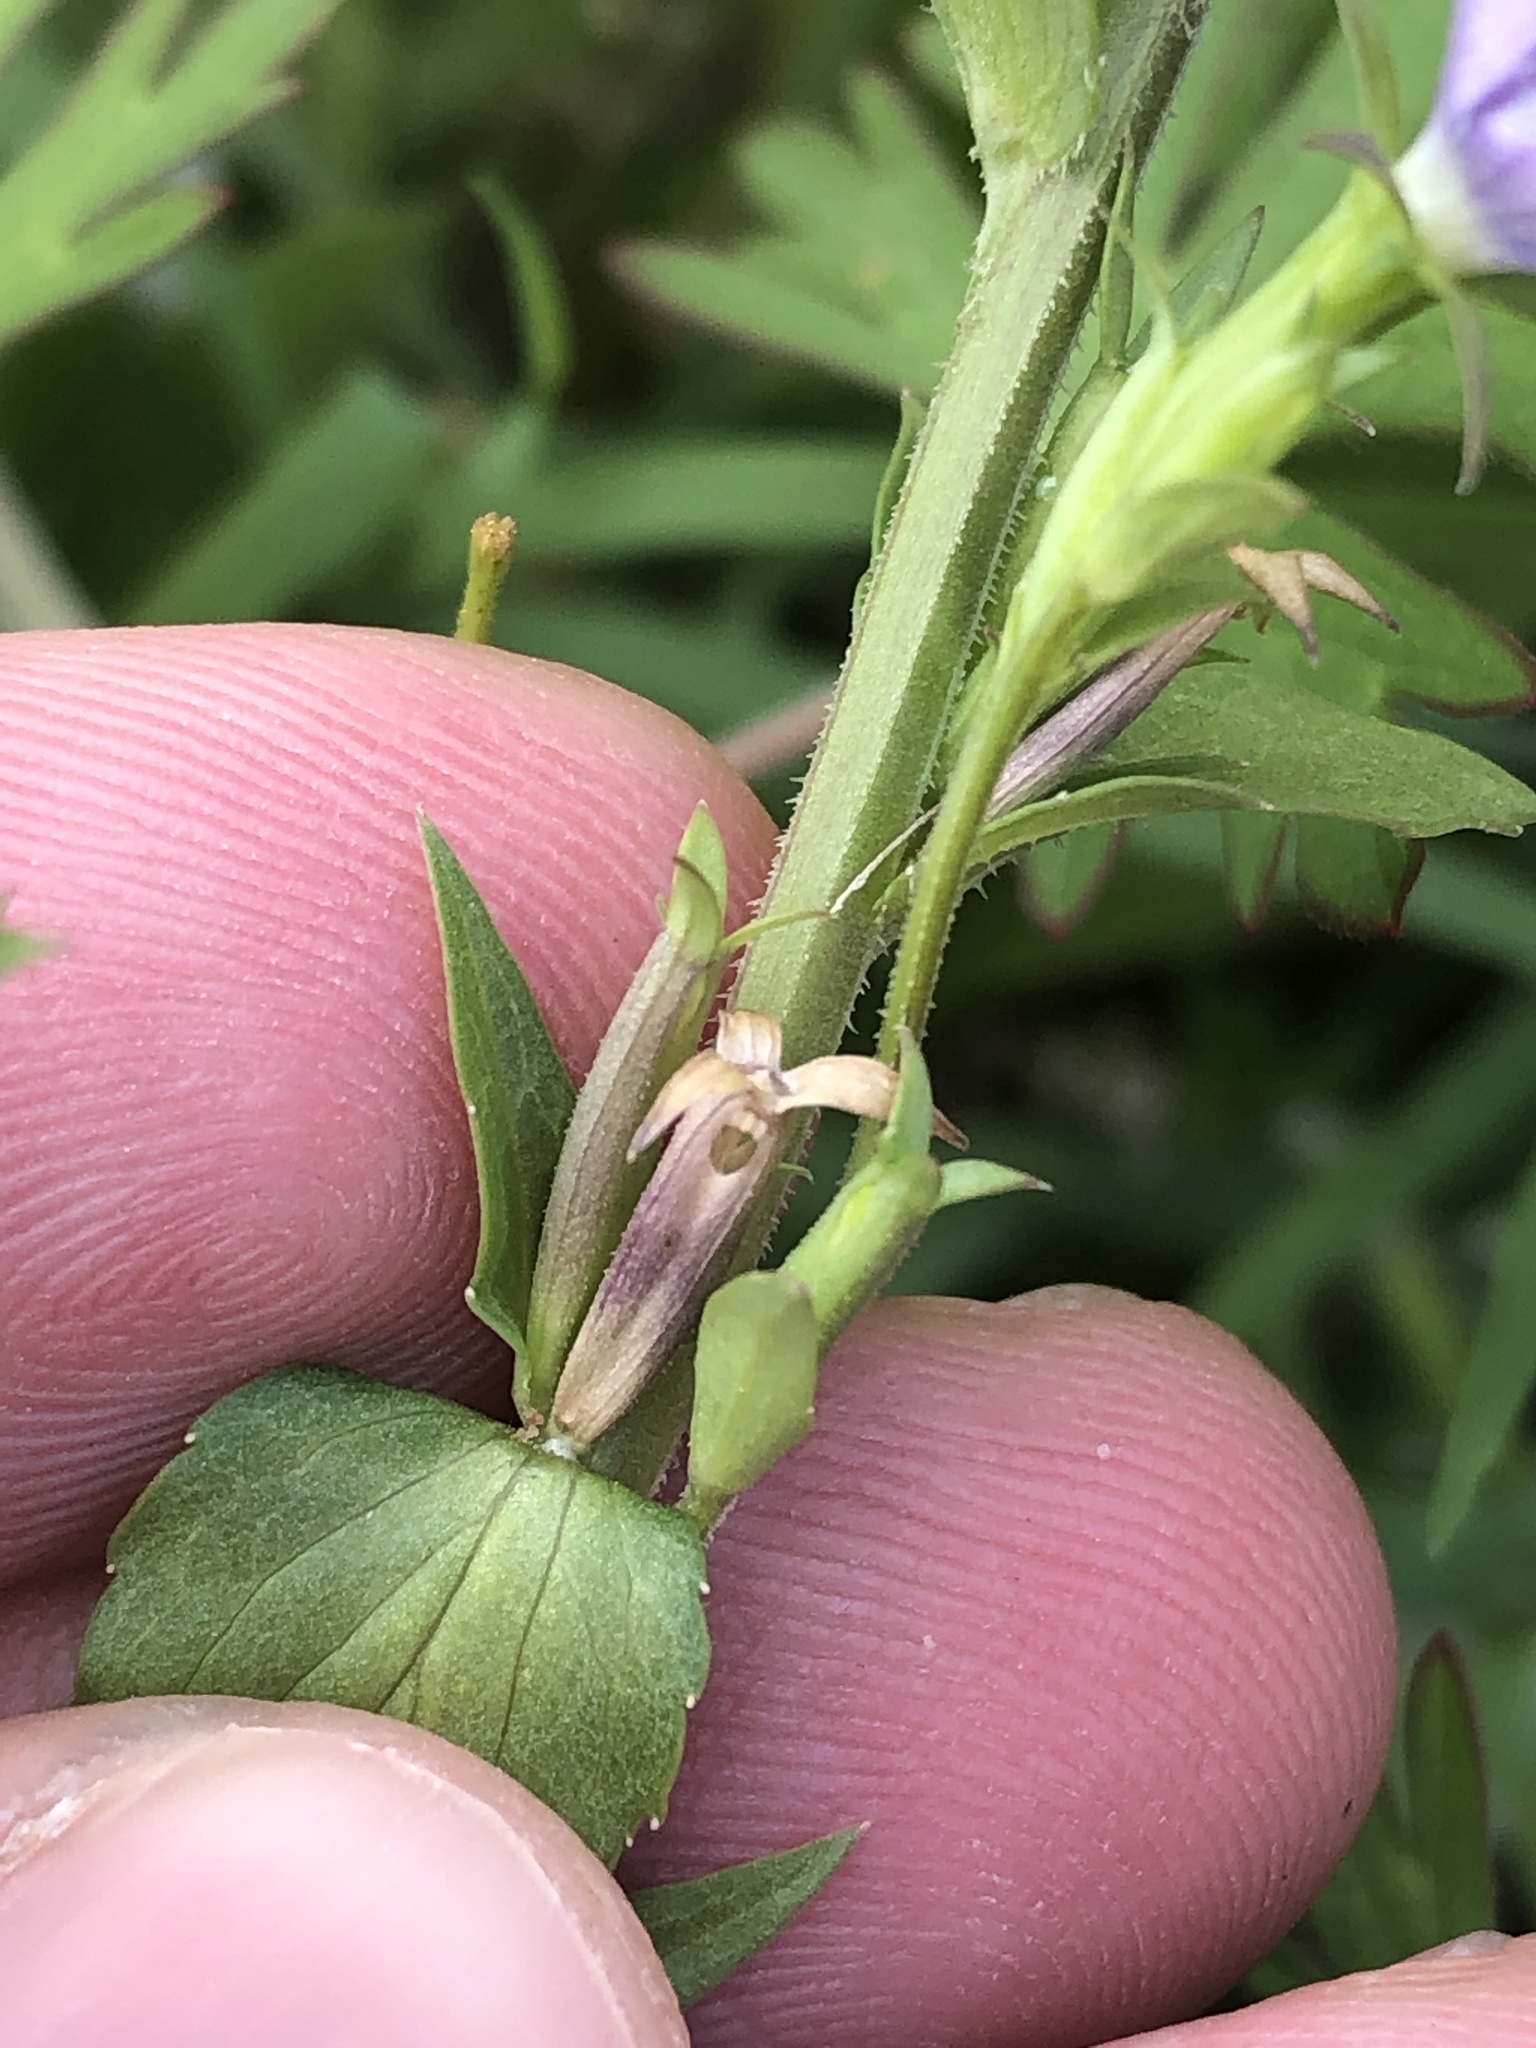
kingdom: Plantae
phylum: Tracheophyta
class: Magnoliopsida
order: Asterales
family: Campanulaceae
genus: Triodanis
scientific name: Triodanis biflora
